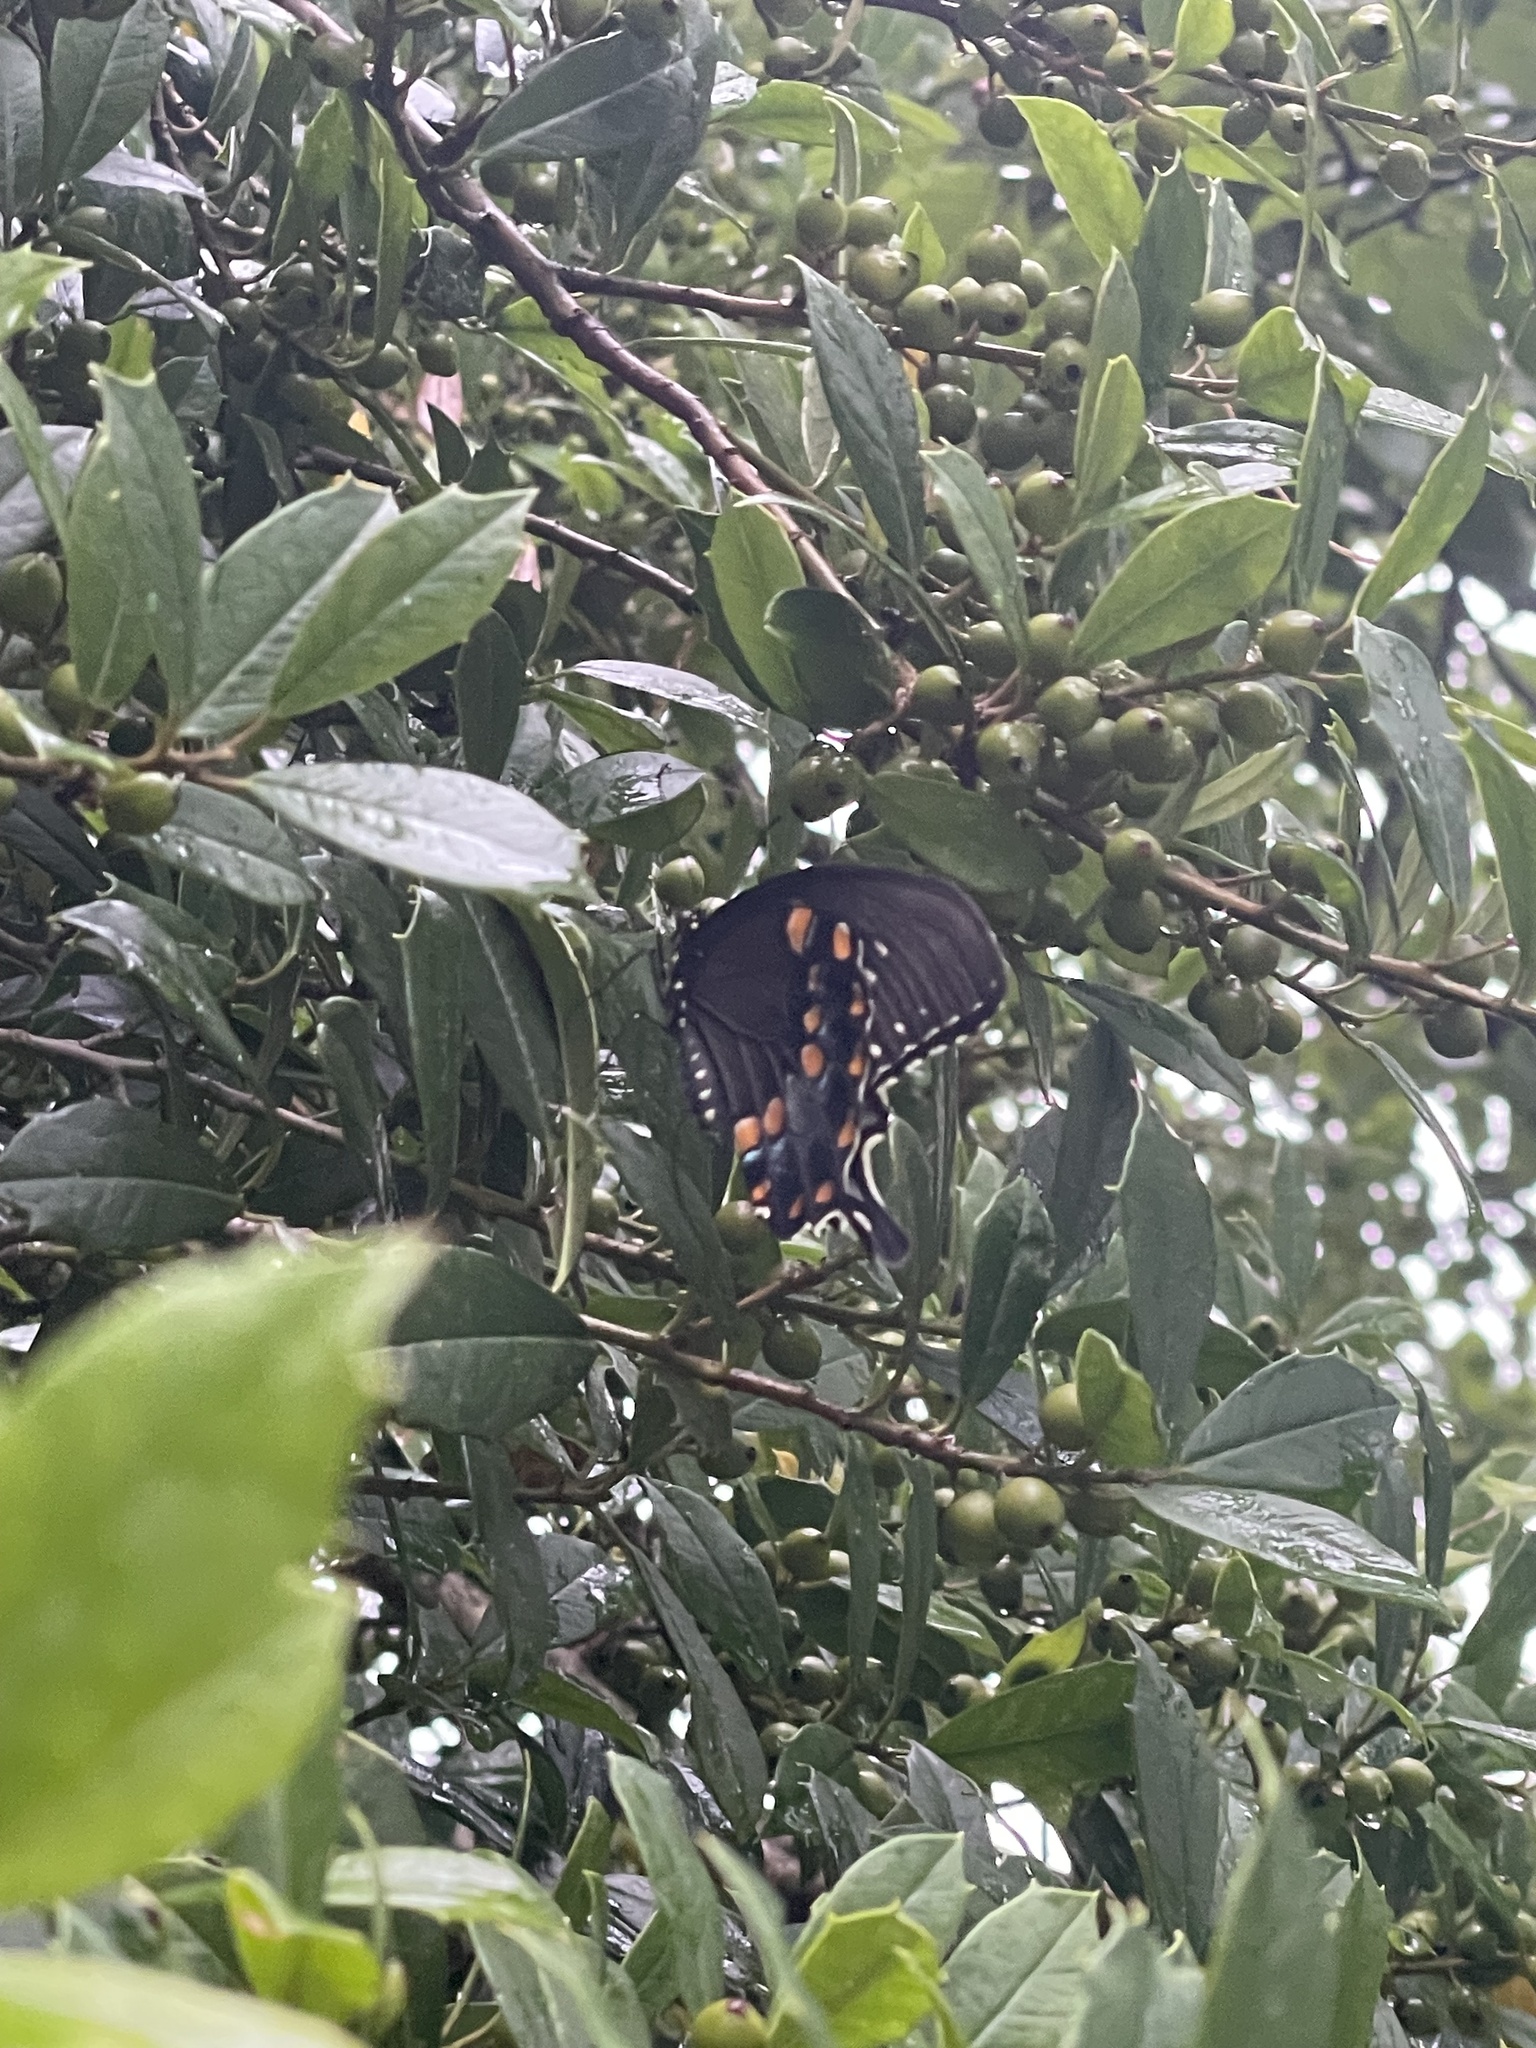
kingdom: Animalia
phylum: Arthropoda
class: Insecta
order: Lepidoptera
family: Papilionidae
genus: Papilio
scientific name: Papilio troilus
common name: Spicebush swallowtail
